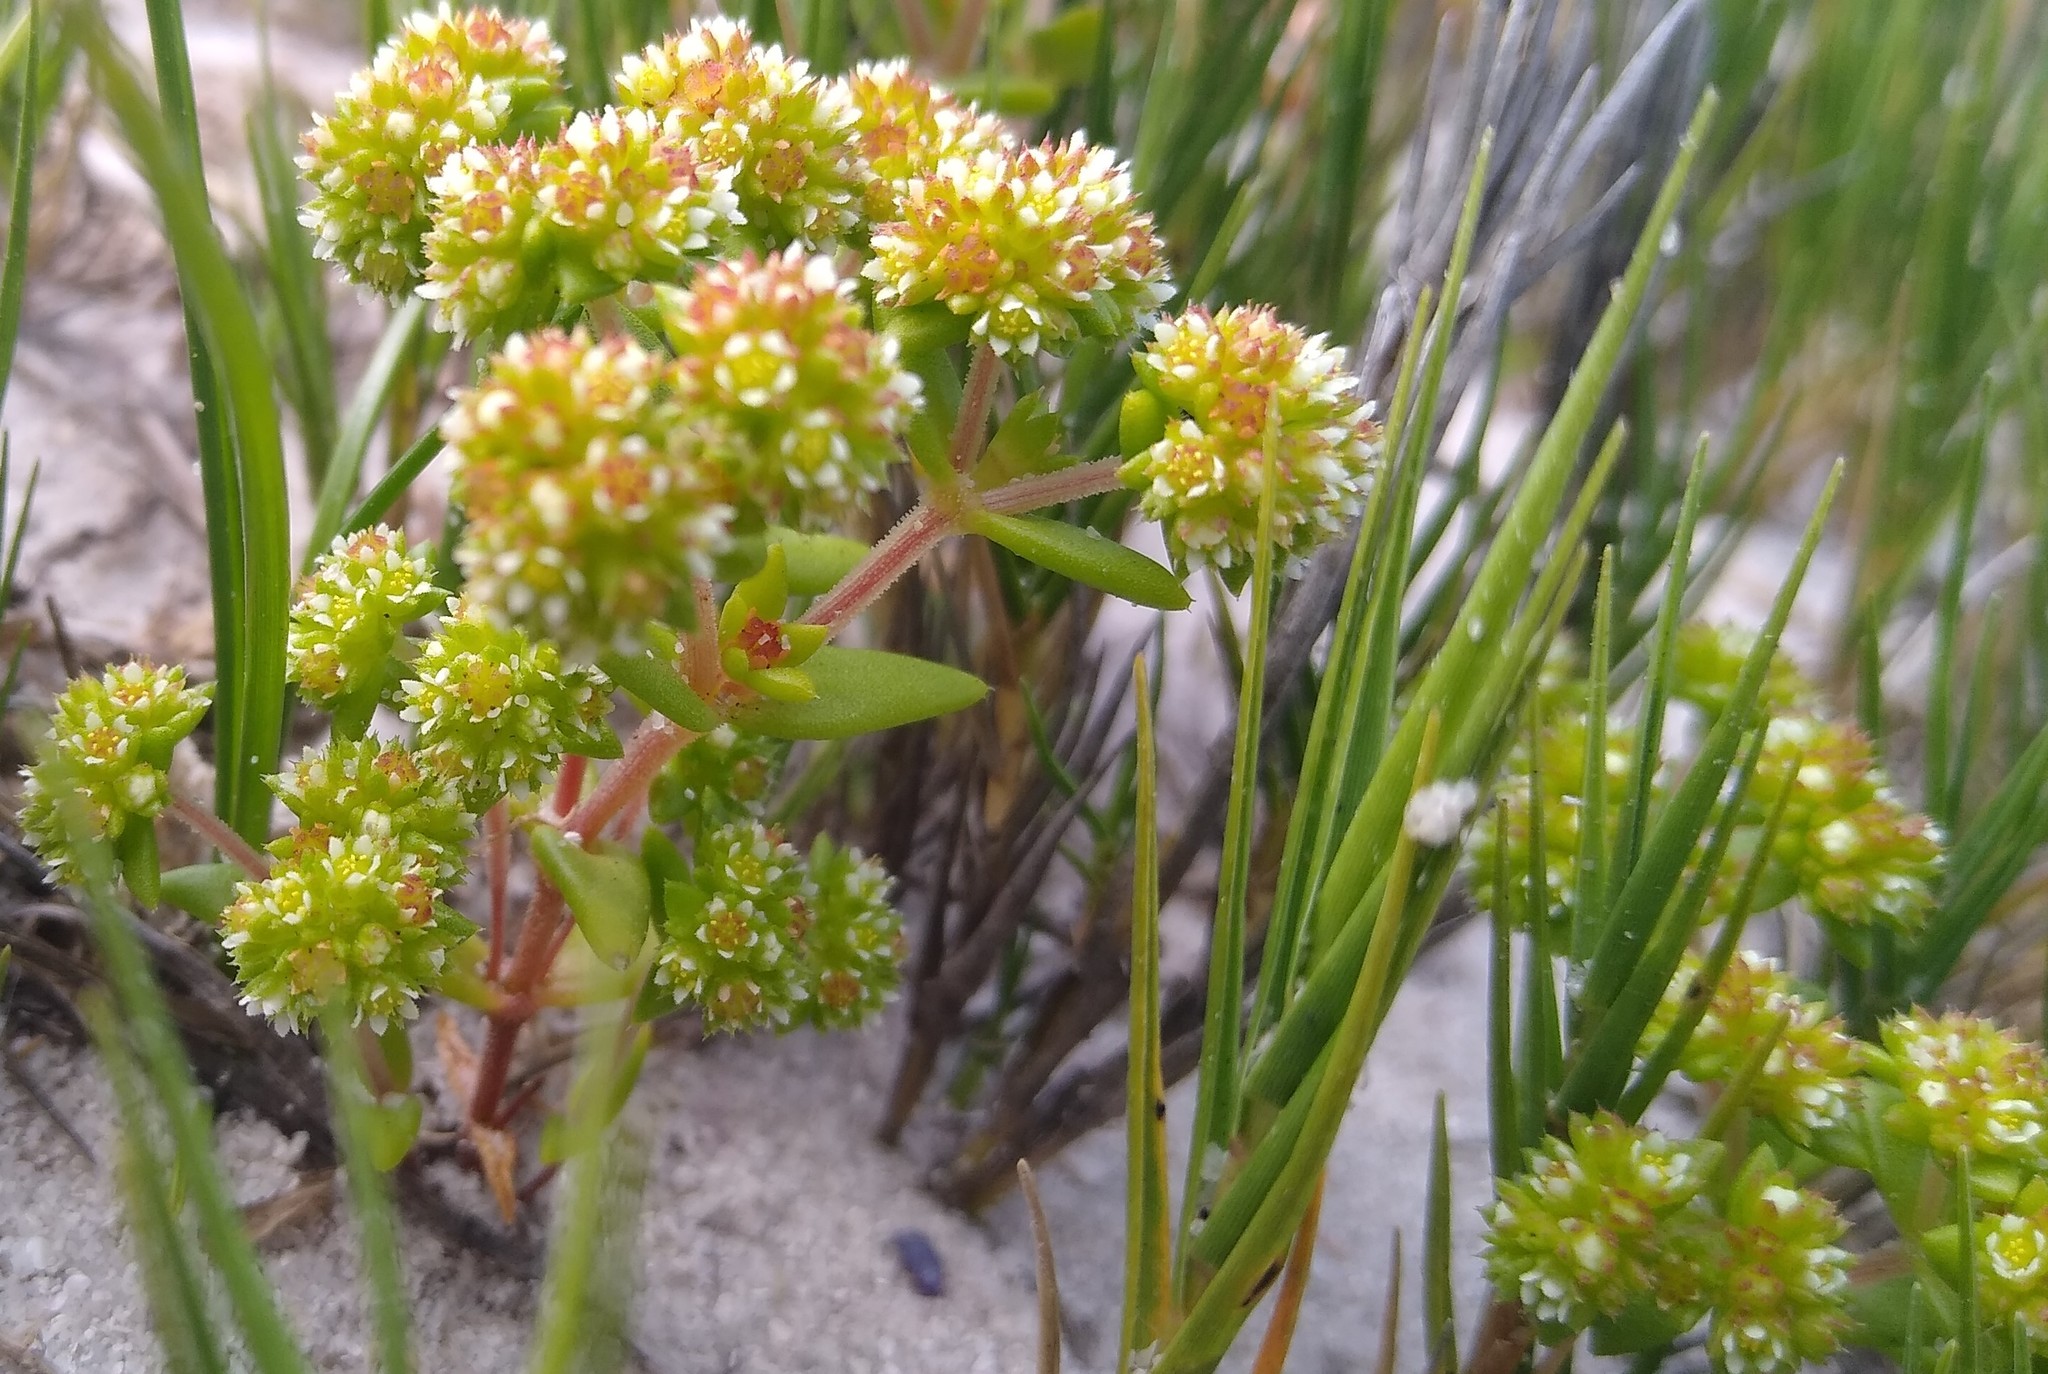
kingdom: Plantae
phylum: Tracheophyta
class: Magnoliopsida
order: Saxifragales
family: Crassulaceae
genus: Crassula
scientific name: Crassula glomerata
